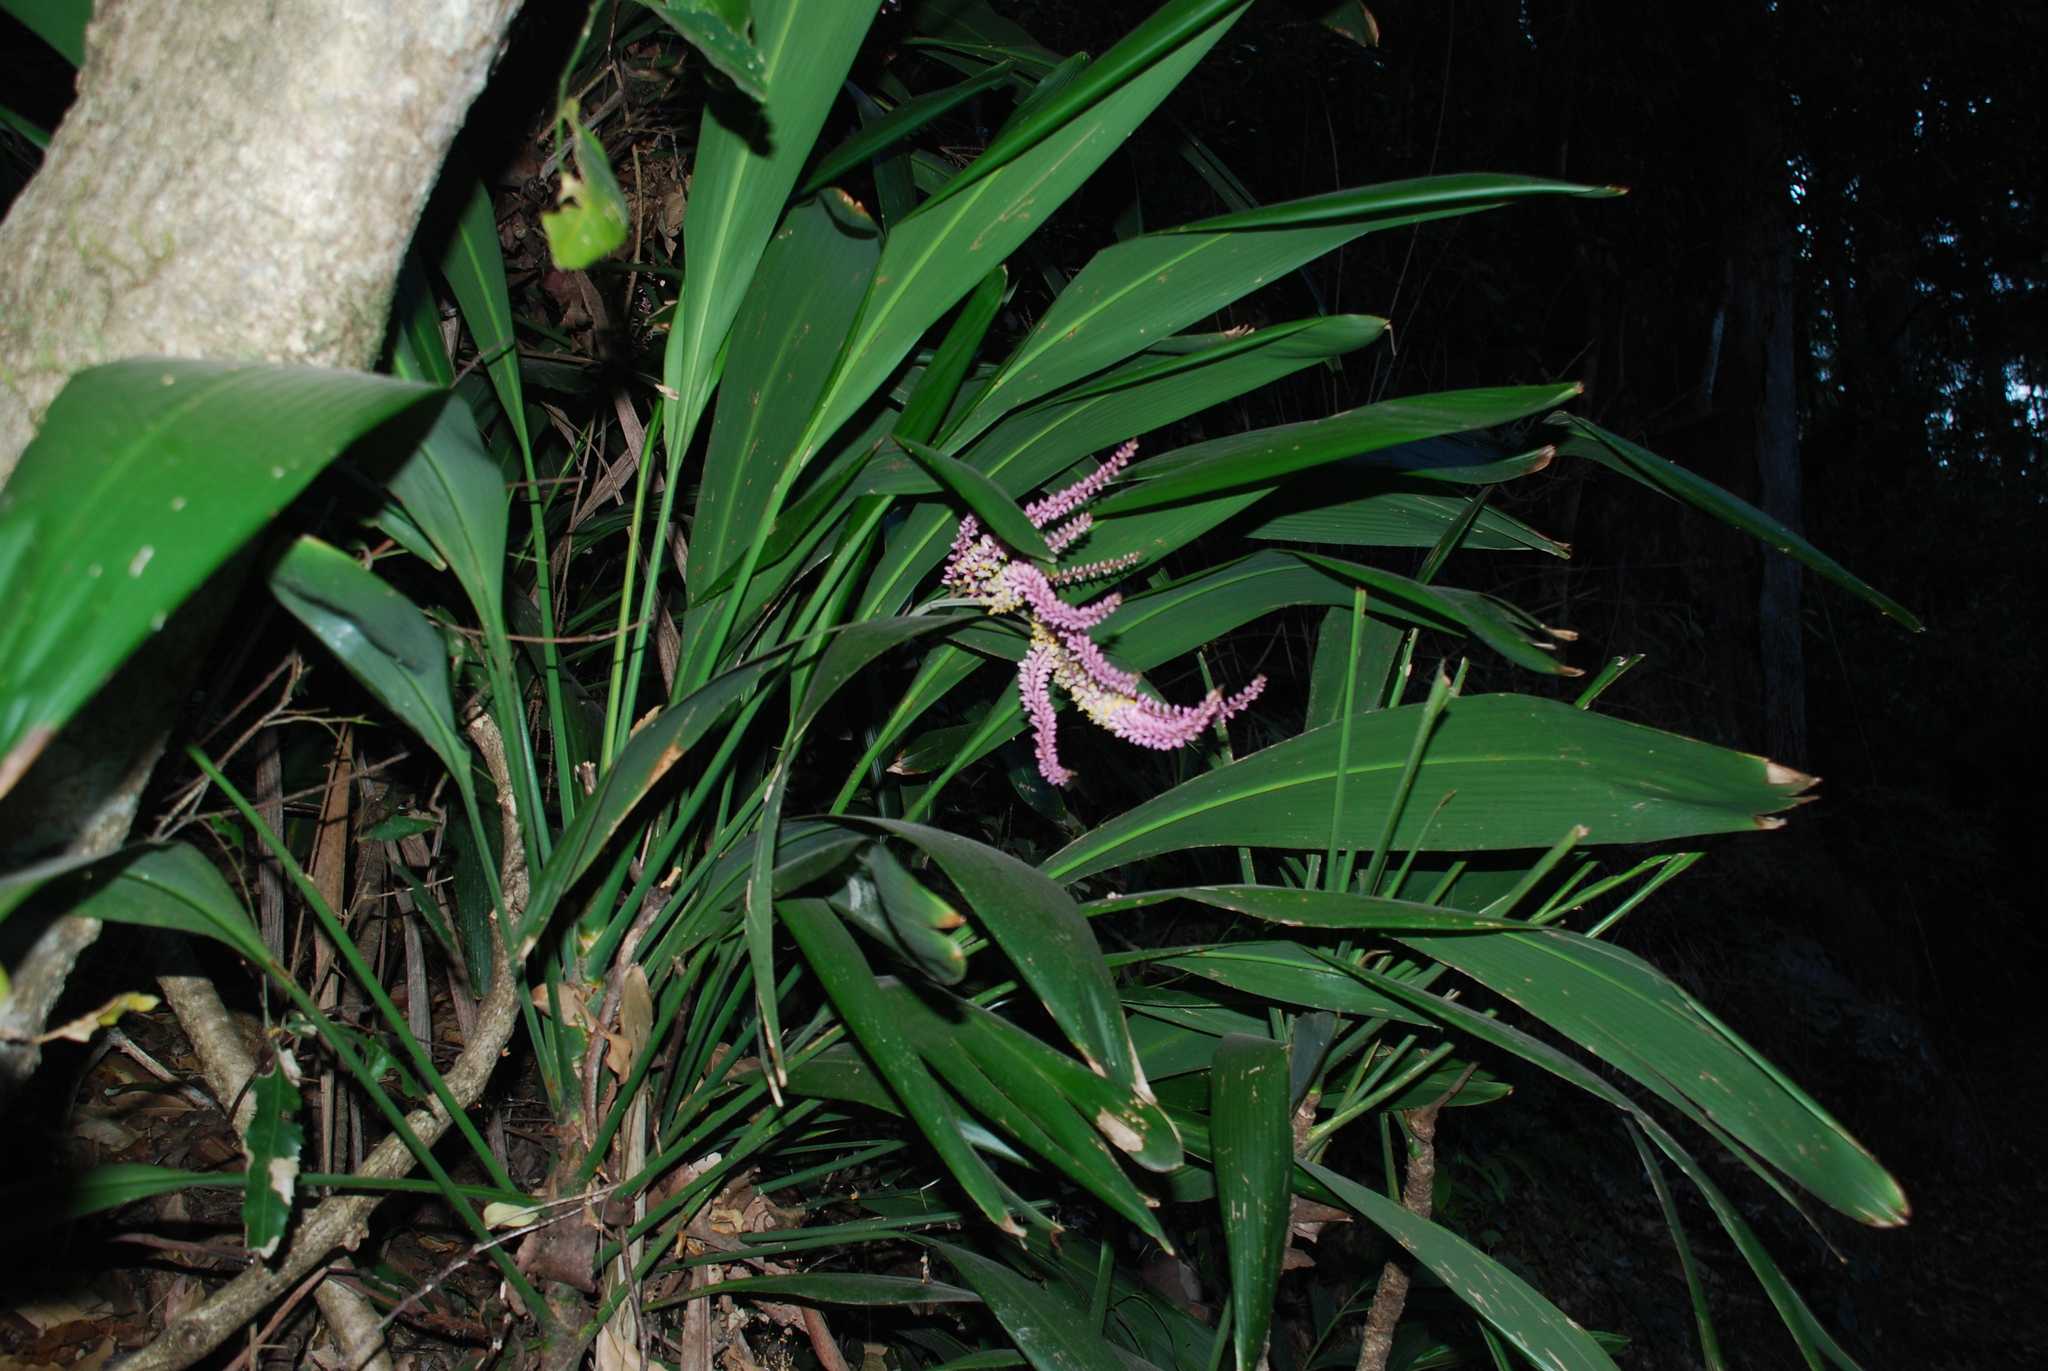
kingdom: Plantae
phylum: Tracheophyta
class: Liliopsida
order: Asparagales
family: Asparagaceae
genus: Cordyline
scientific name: Cordyline petiolaris
